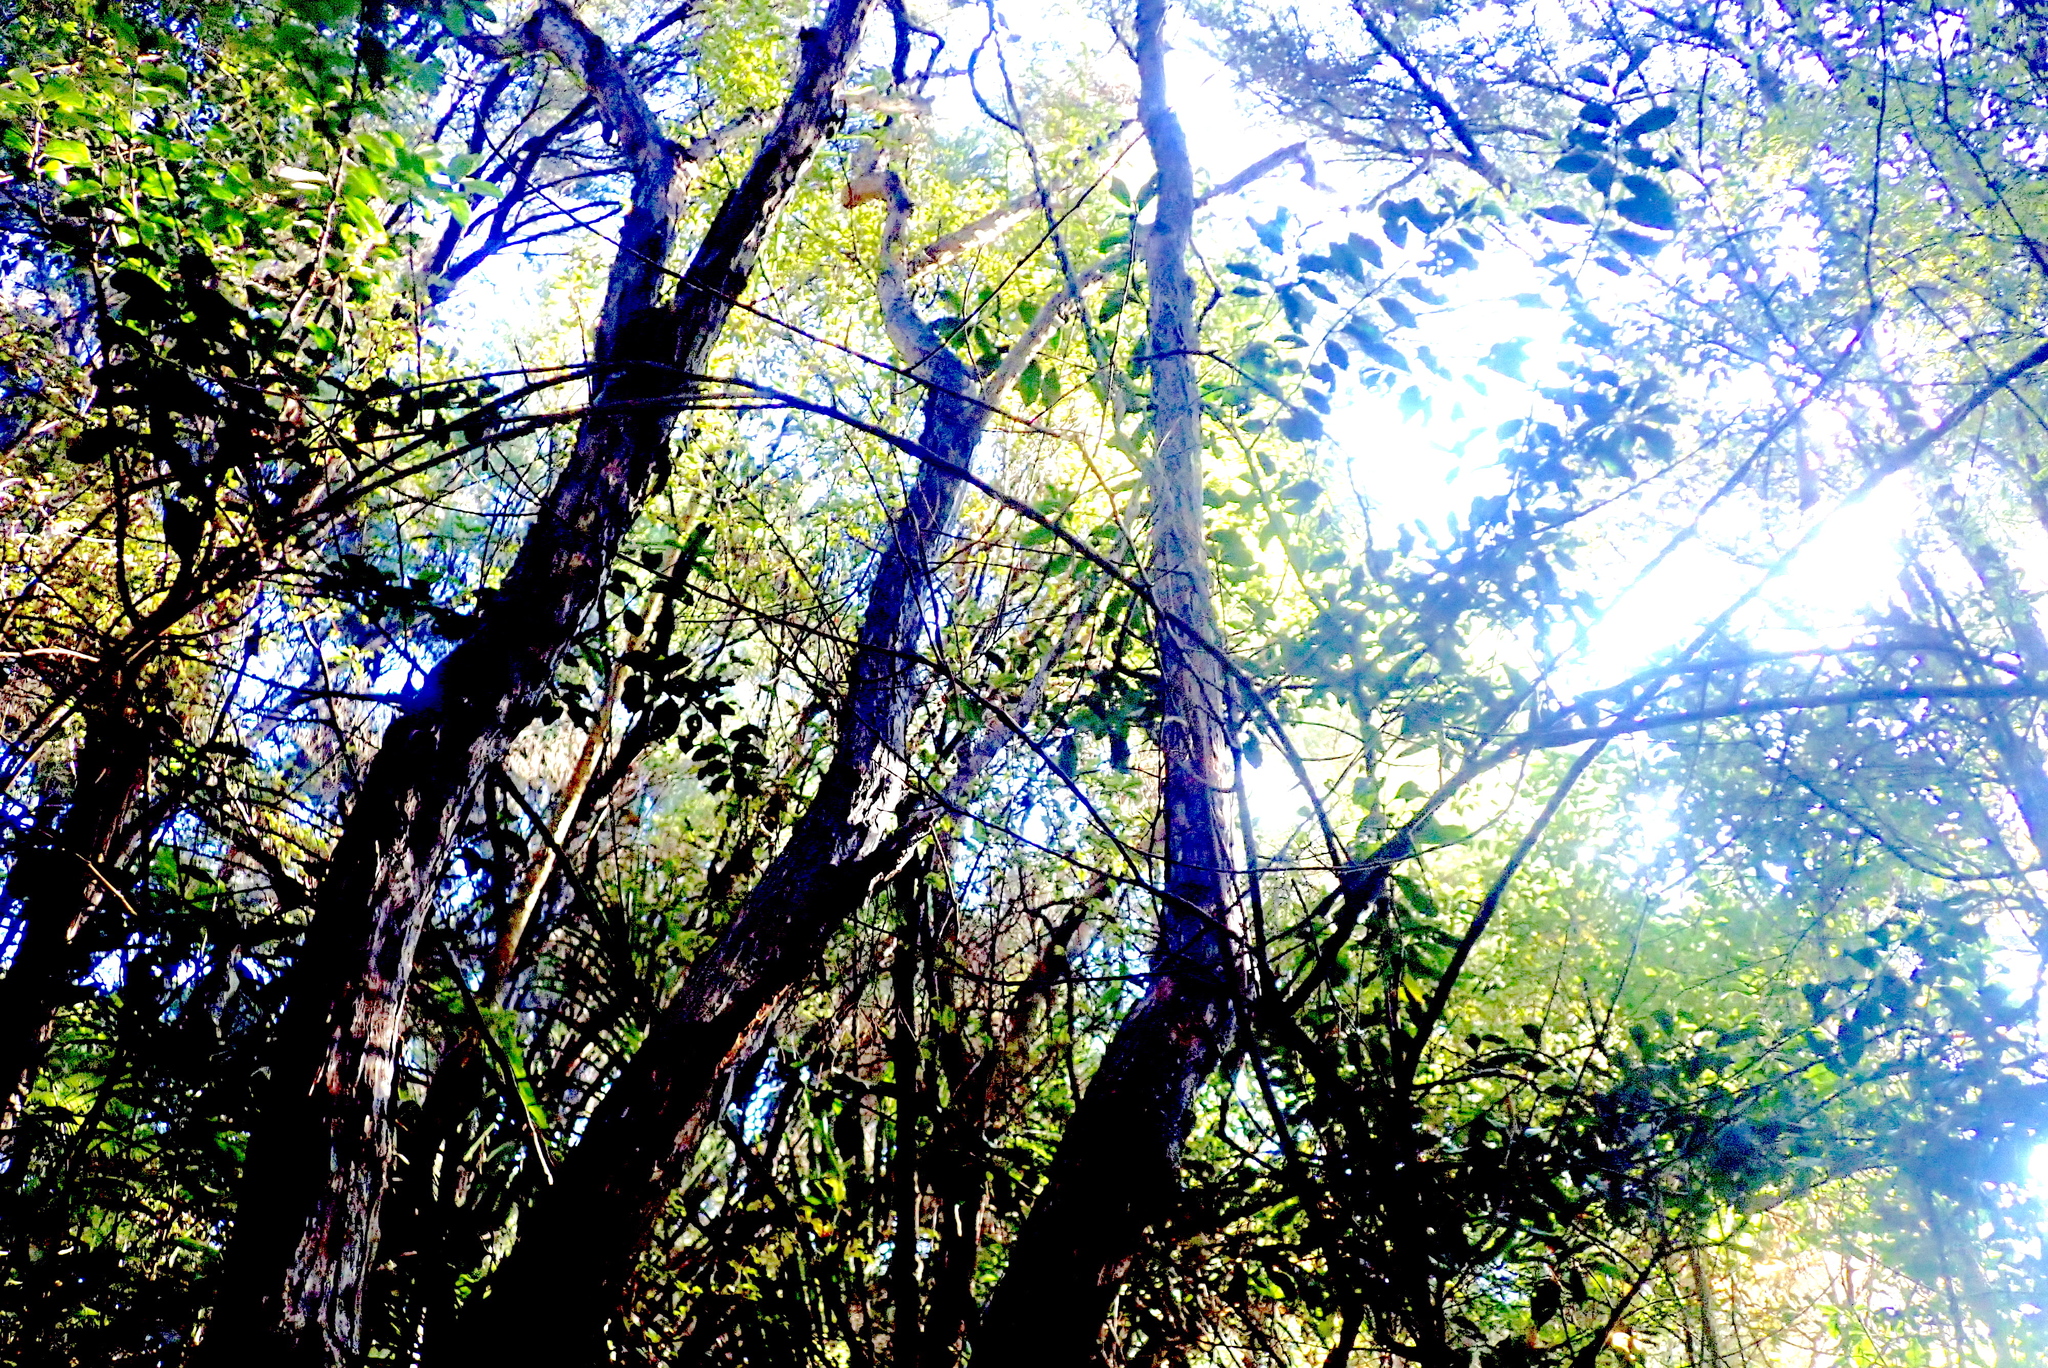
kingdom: Plantae
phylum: Tracheophyta
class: Magnoliopsida
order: Rosales
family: Elaeagnaceae
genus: Elaeagnus
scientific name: Elaeagnus reflexa
